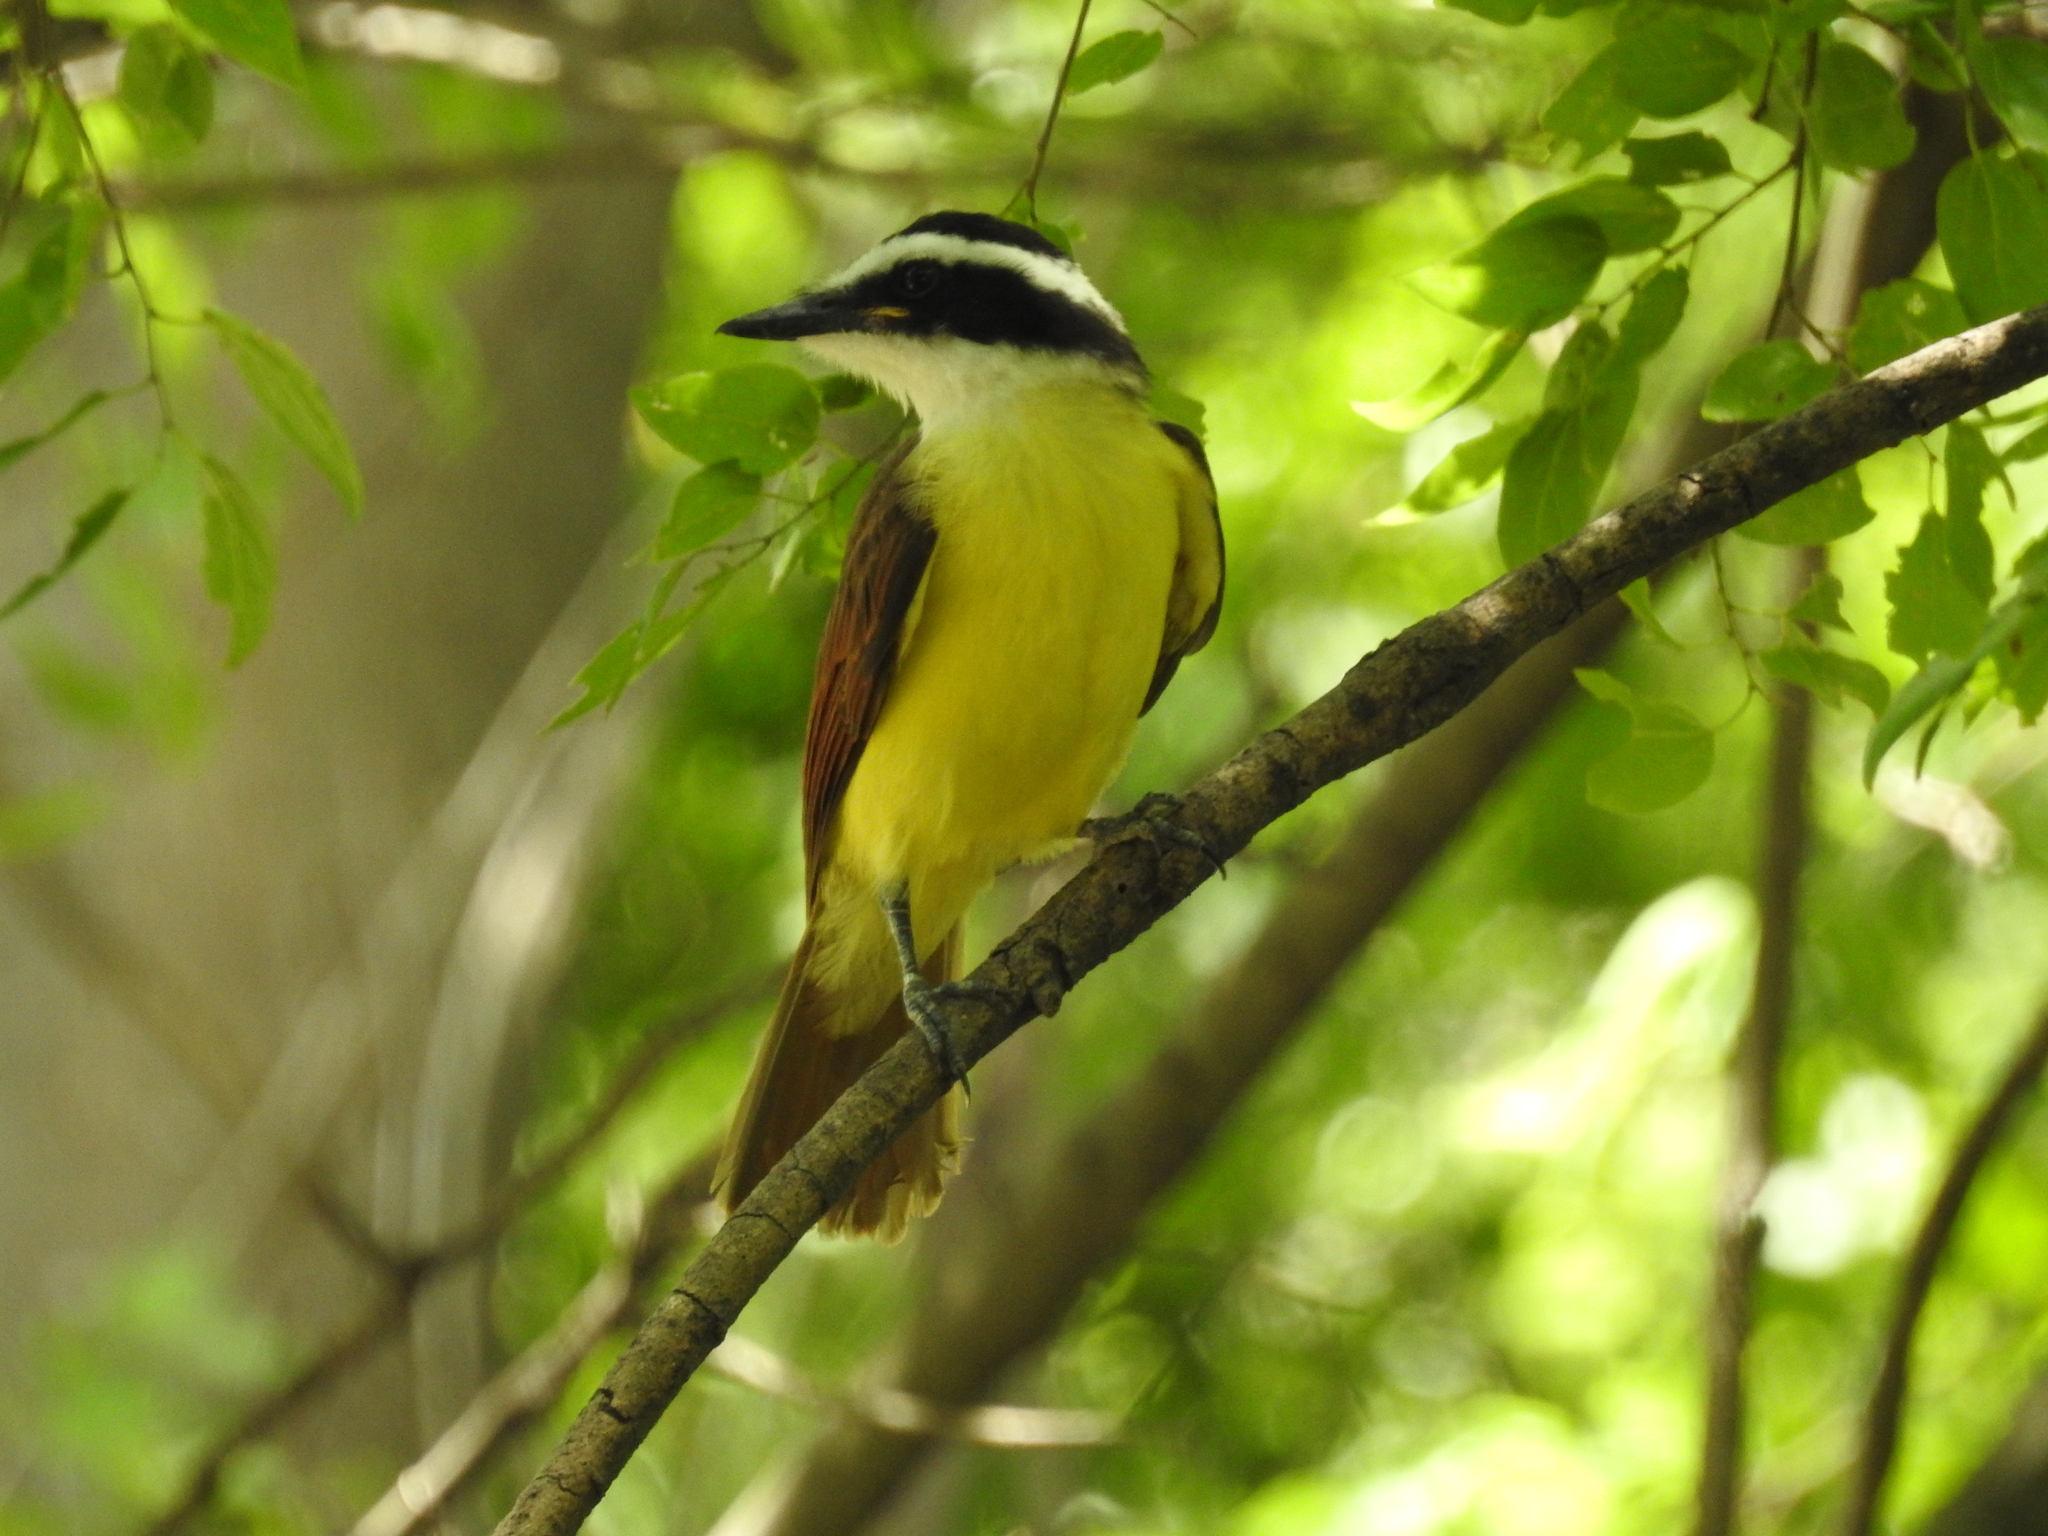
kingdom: Animalia
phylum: Chordata
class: Aves
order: Passeriformes
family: Tyrannidae
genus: Pitangus
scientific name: Pitangus sulphuratus
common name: Great kiskadee
